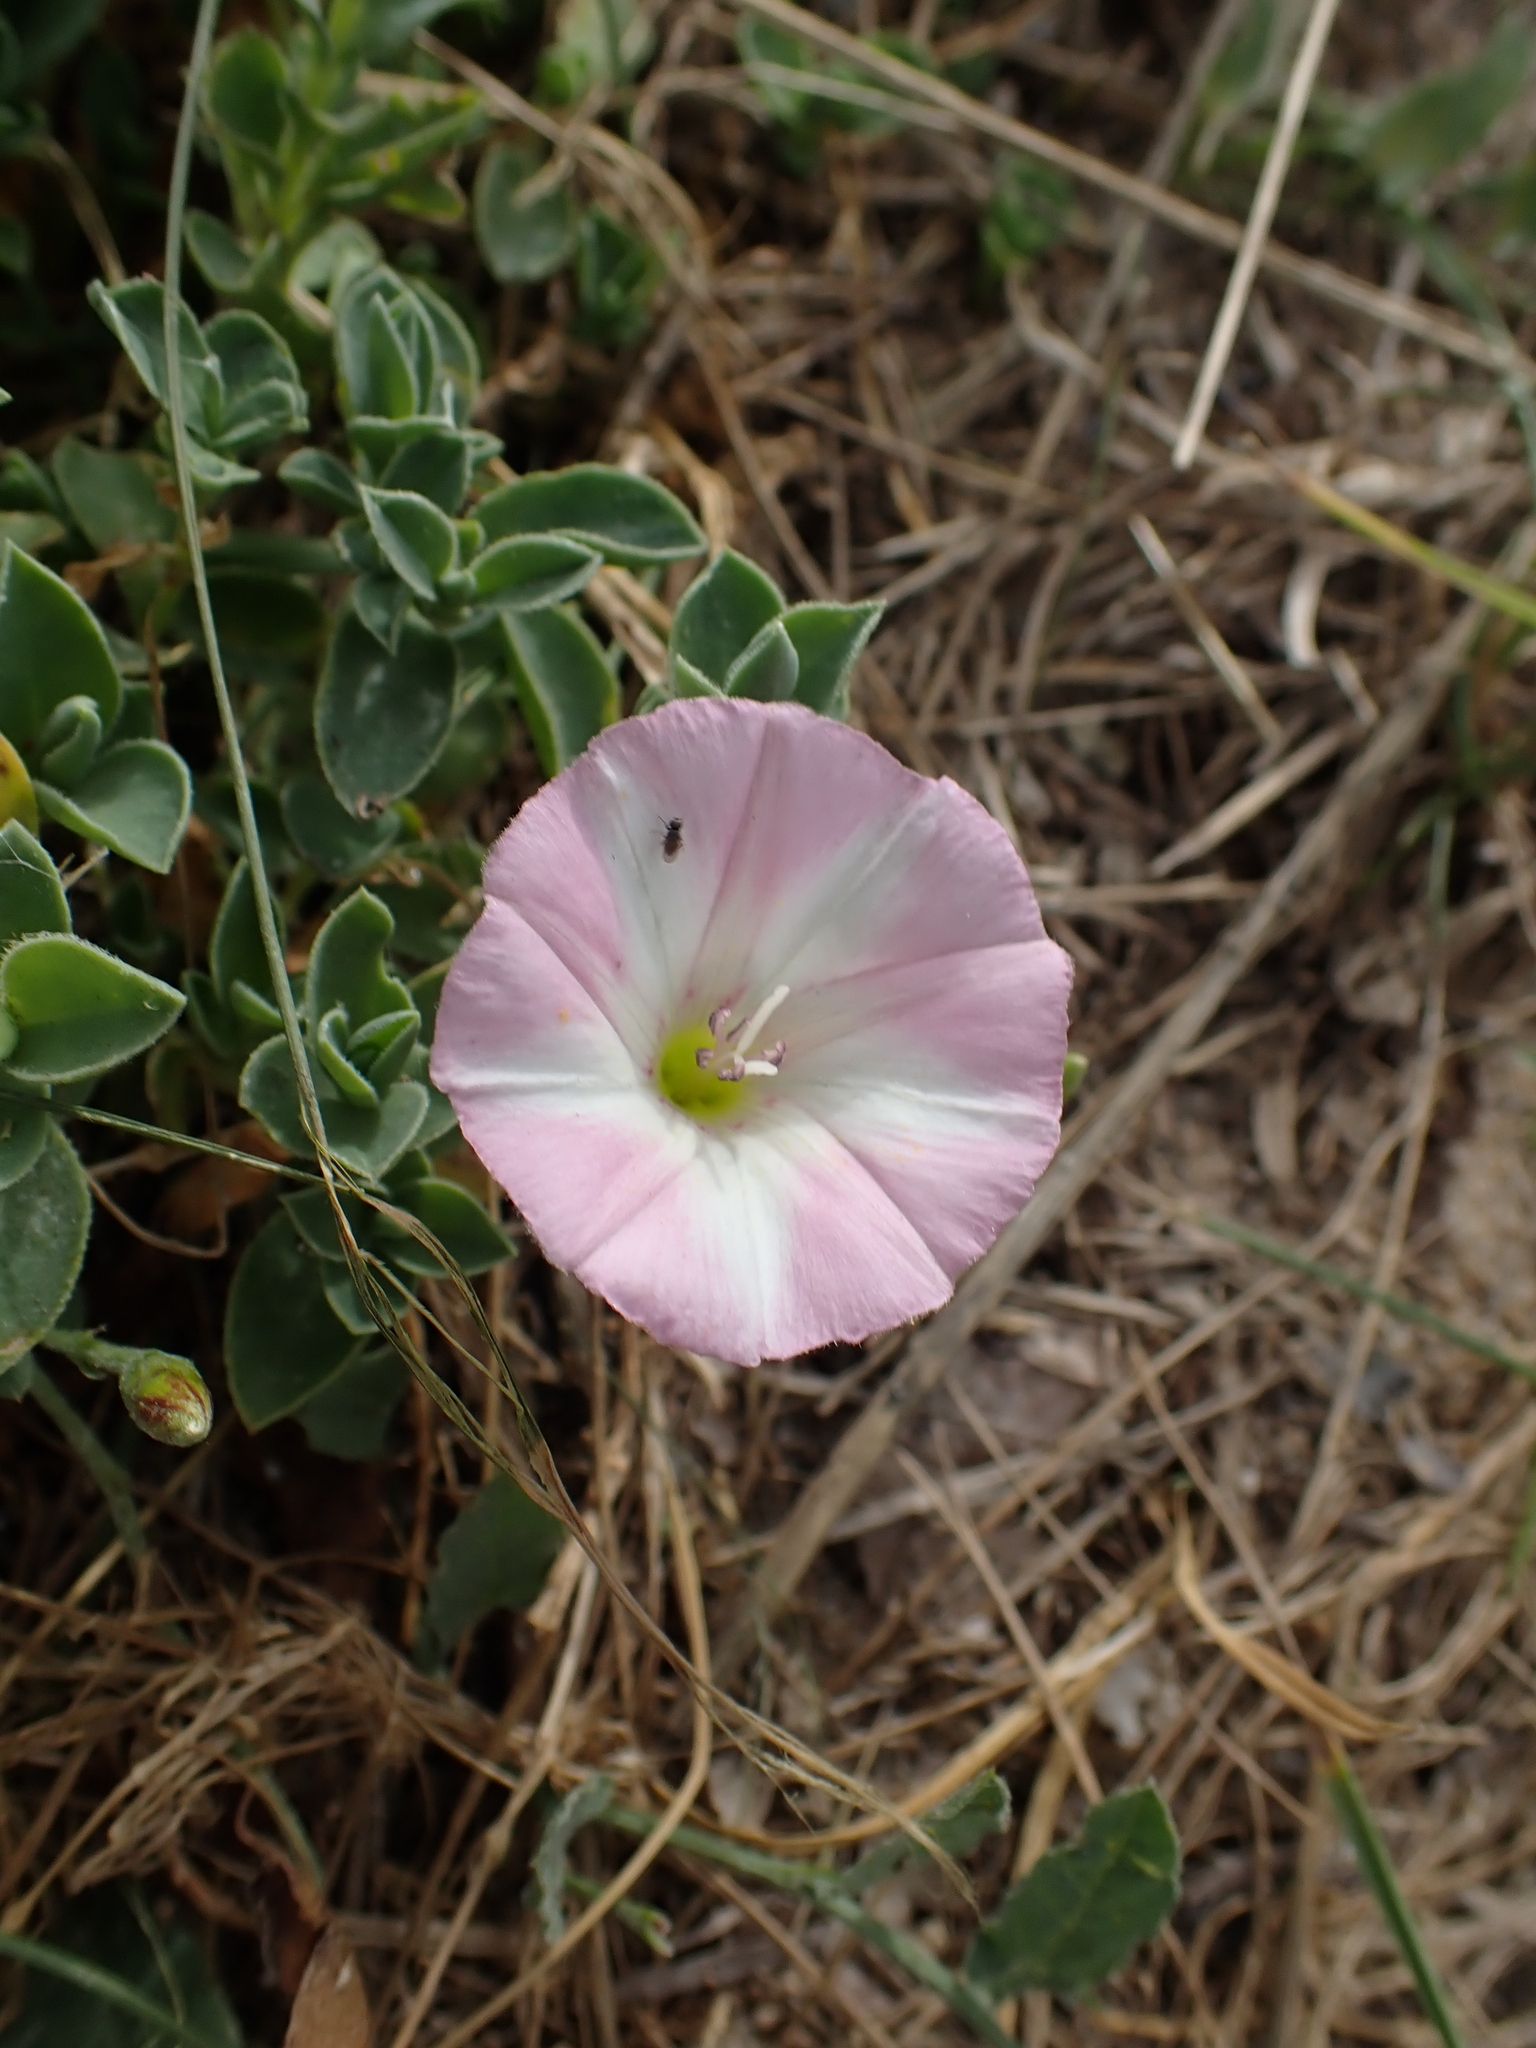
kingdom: Plantae
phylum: Tracheophyta
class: Magnoliopsida
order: Solanales
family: Convolvulaceae
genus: Convolvulus
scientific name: Convolvulus arvensis
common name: Field bindweed
